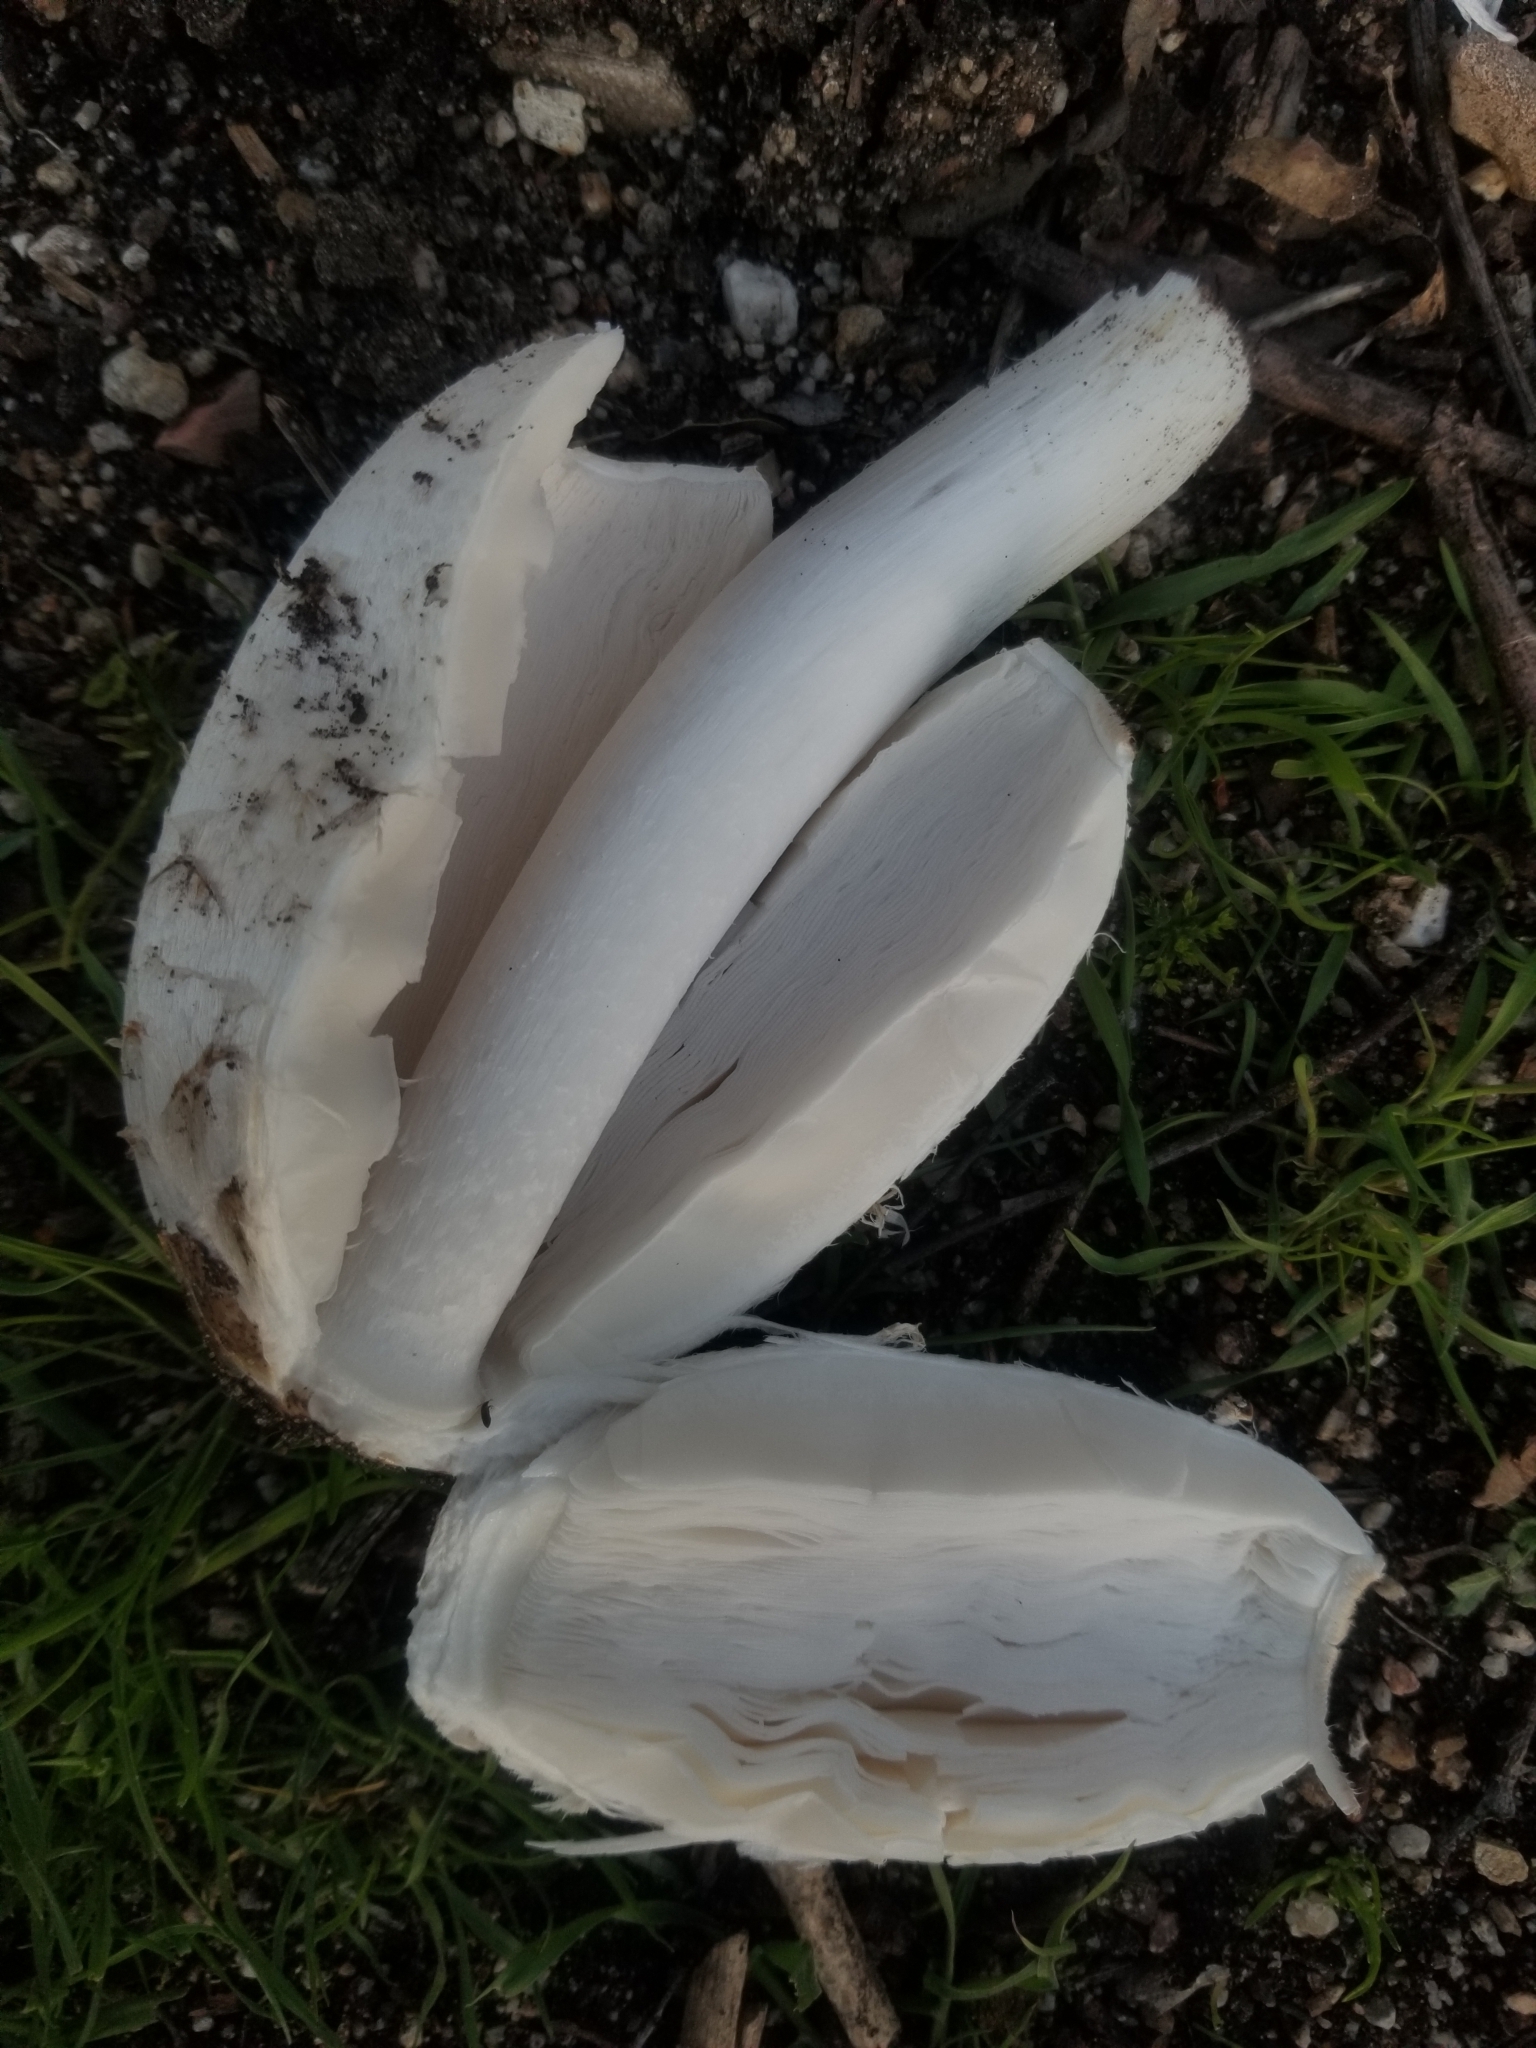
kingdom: Fungi
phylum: Basidiomycota
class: Agaricomycetes
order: Agaricales
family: Agaricaceae
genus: Coprinus
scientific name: Coprinus comatus
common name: Lawyer's wig
